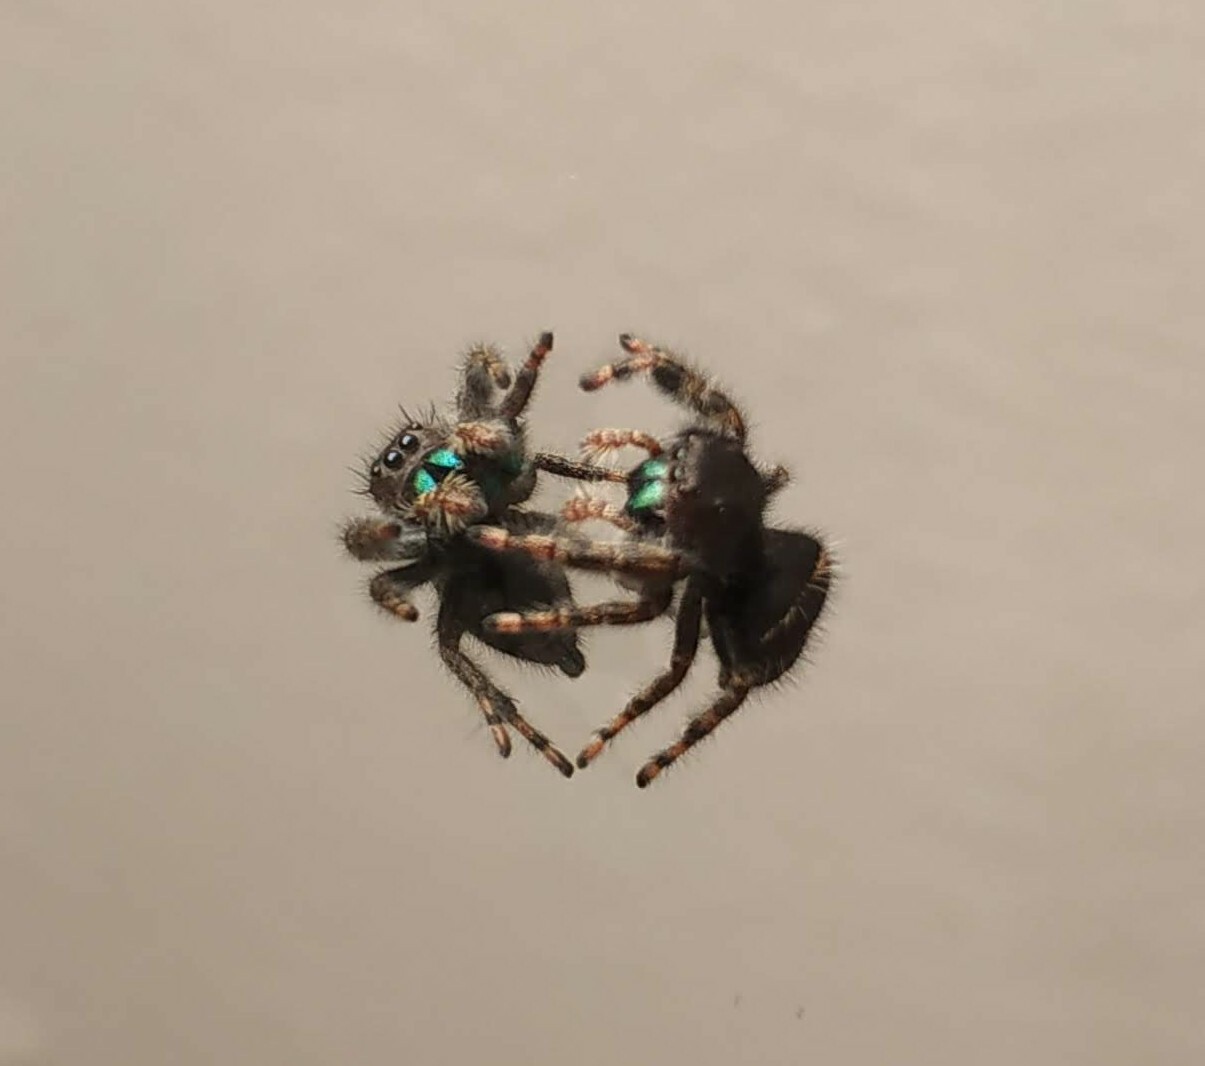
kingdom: Animalia
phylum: Arthropoda
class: Arachnida
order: Araneae
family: Salticidae
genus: Phidippus
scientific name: Phidippus audax
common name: Bold jumper
